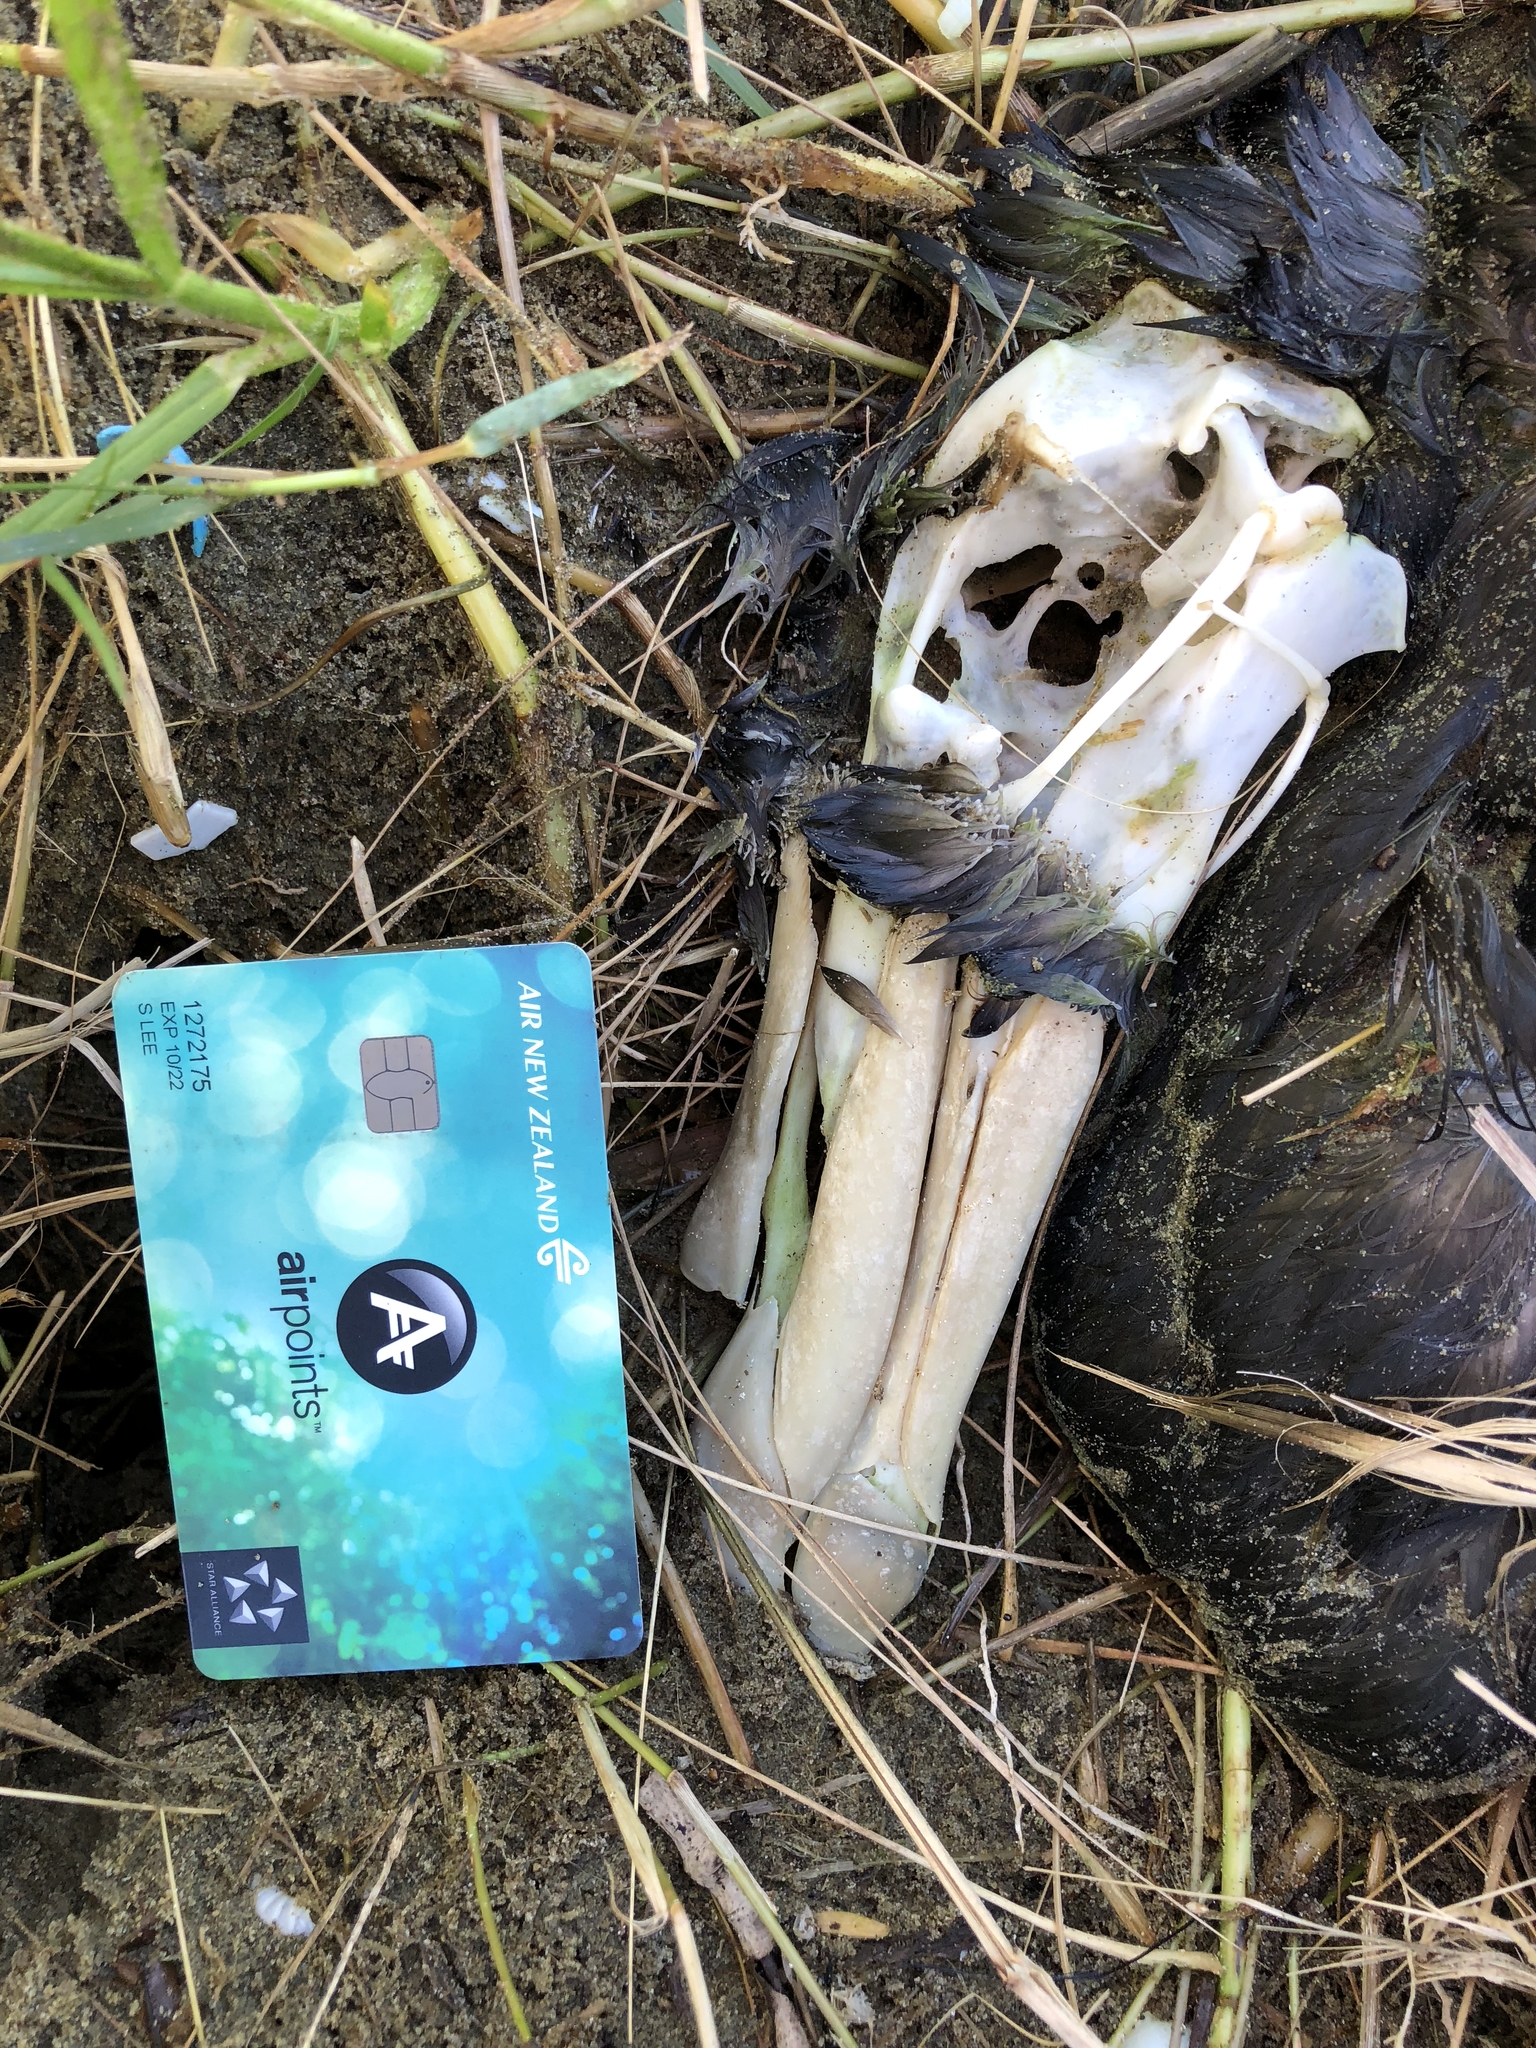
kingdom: Animalia
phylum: Chordata
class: Aves
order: Procellariiformes
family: Procellariidae
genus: Macronectes
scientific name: Macronectes halli
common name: Northern giant petrel
